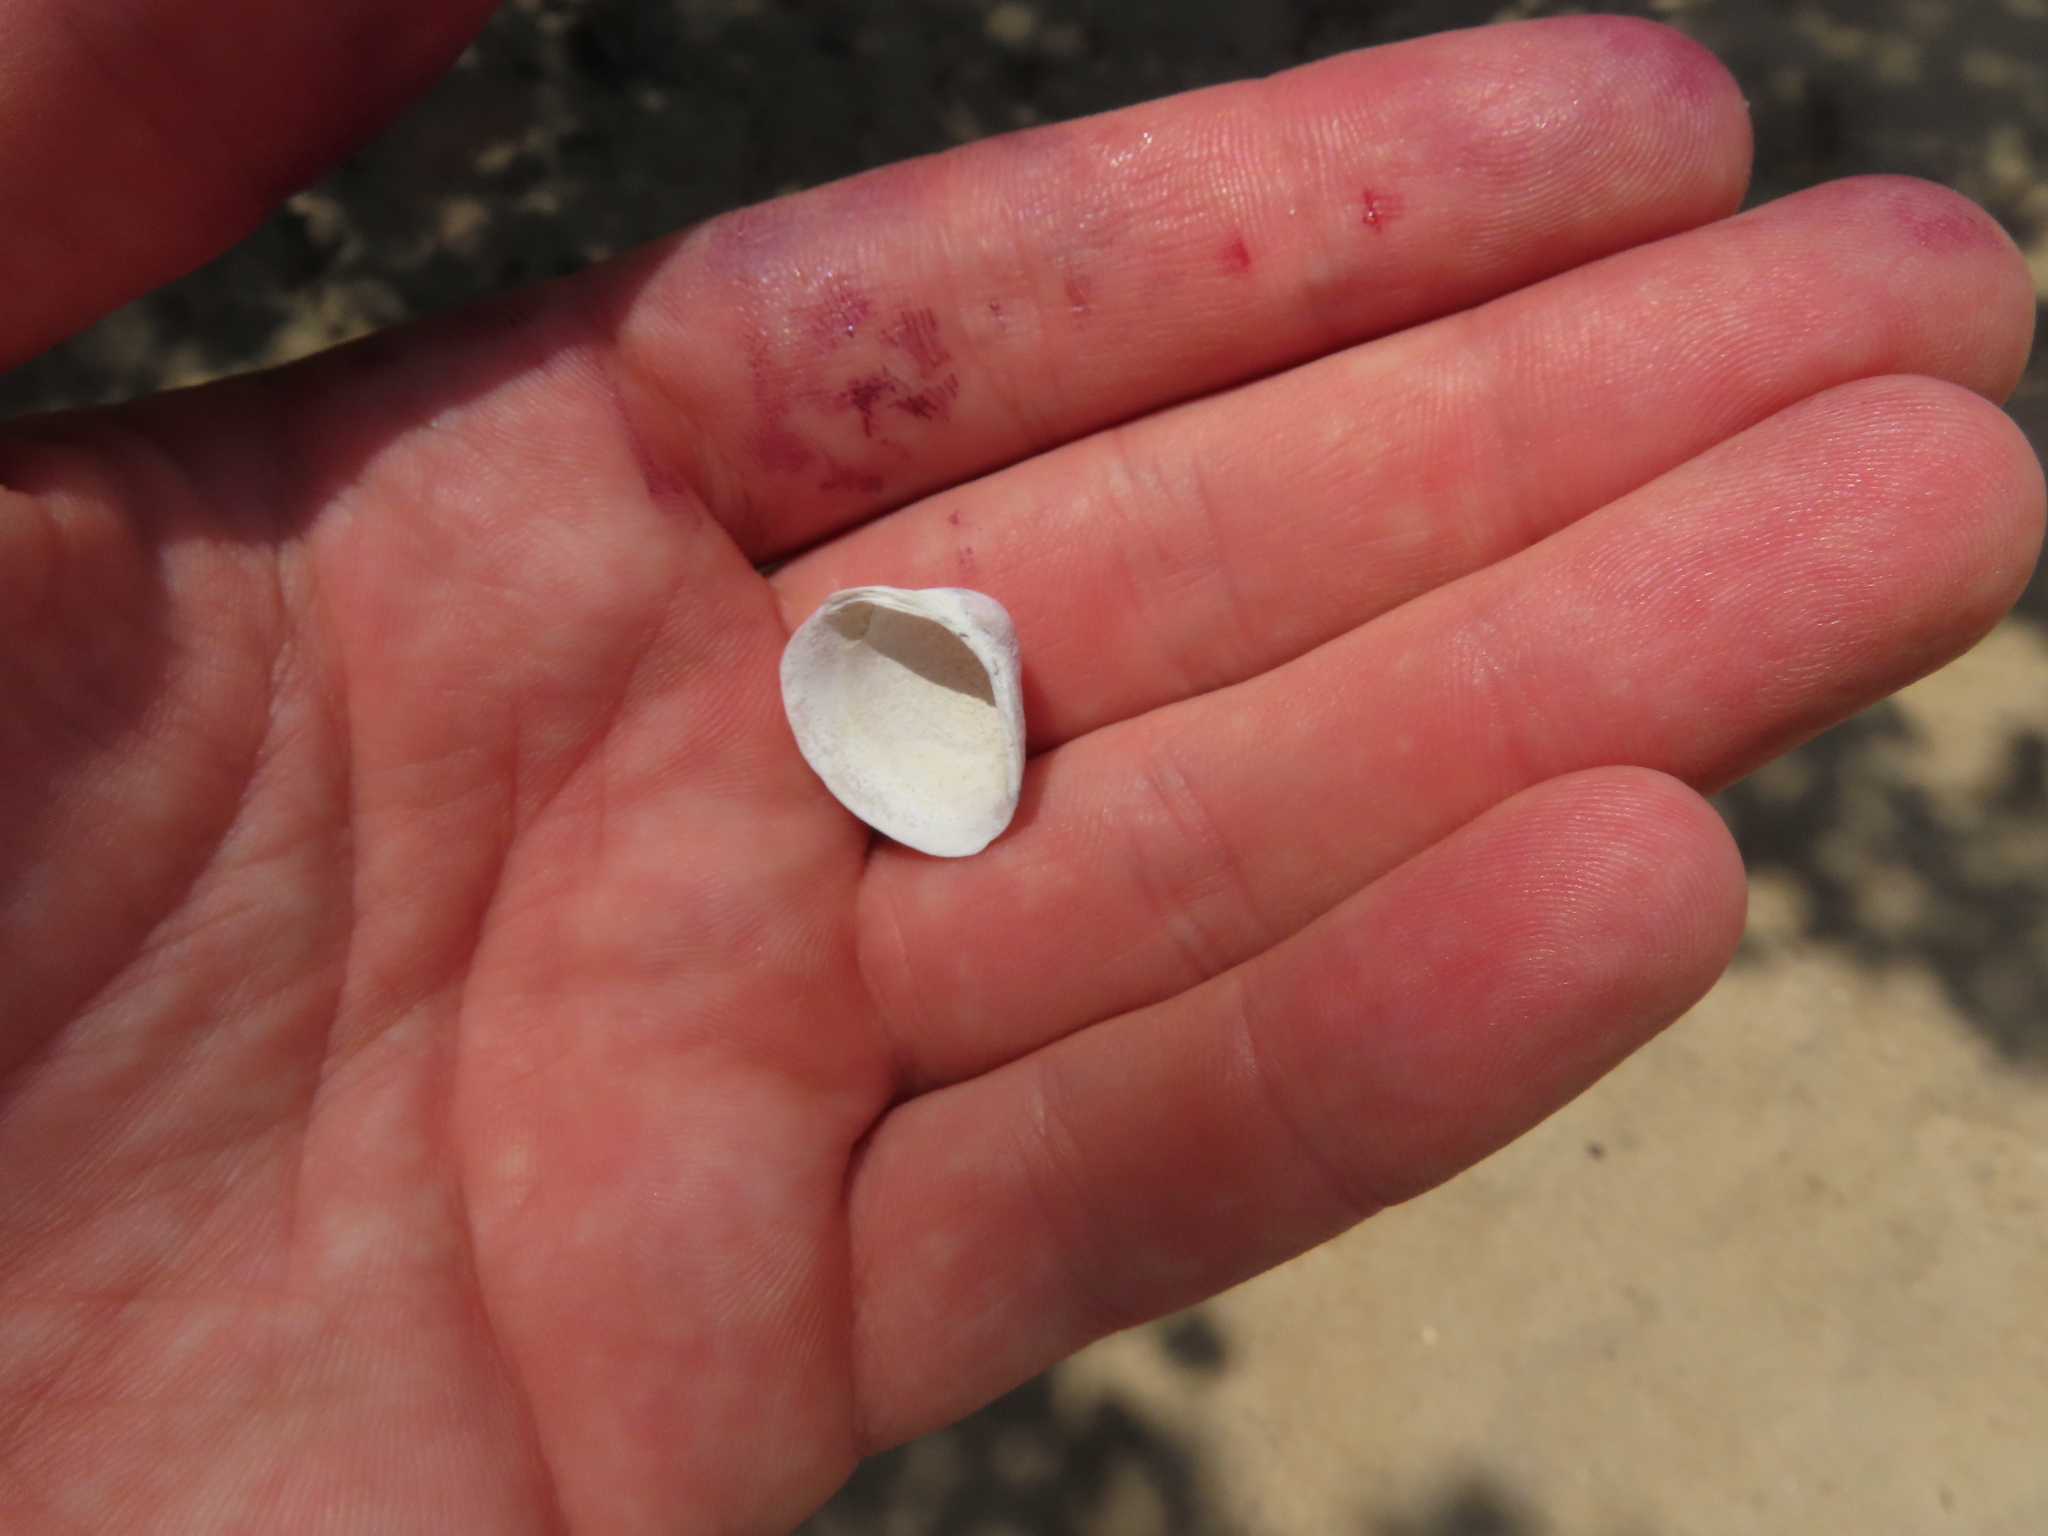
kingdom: Animalia
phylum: Mollusca
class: Bivalvia
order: Venerida
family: Cyrenidae
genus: Corbicula
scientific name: Corbicula fluminea
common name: Asian clam
